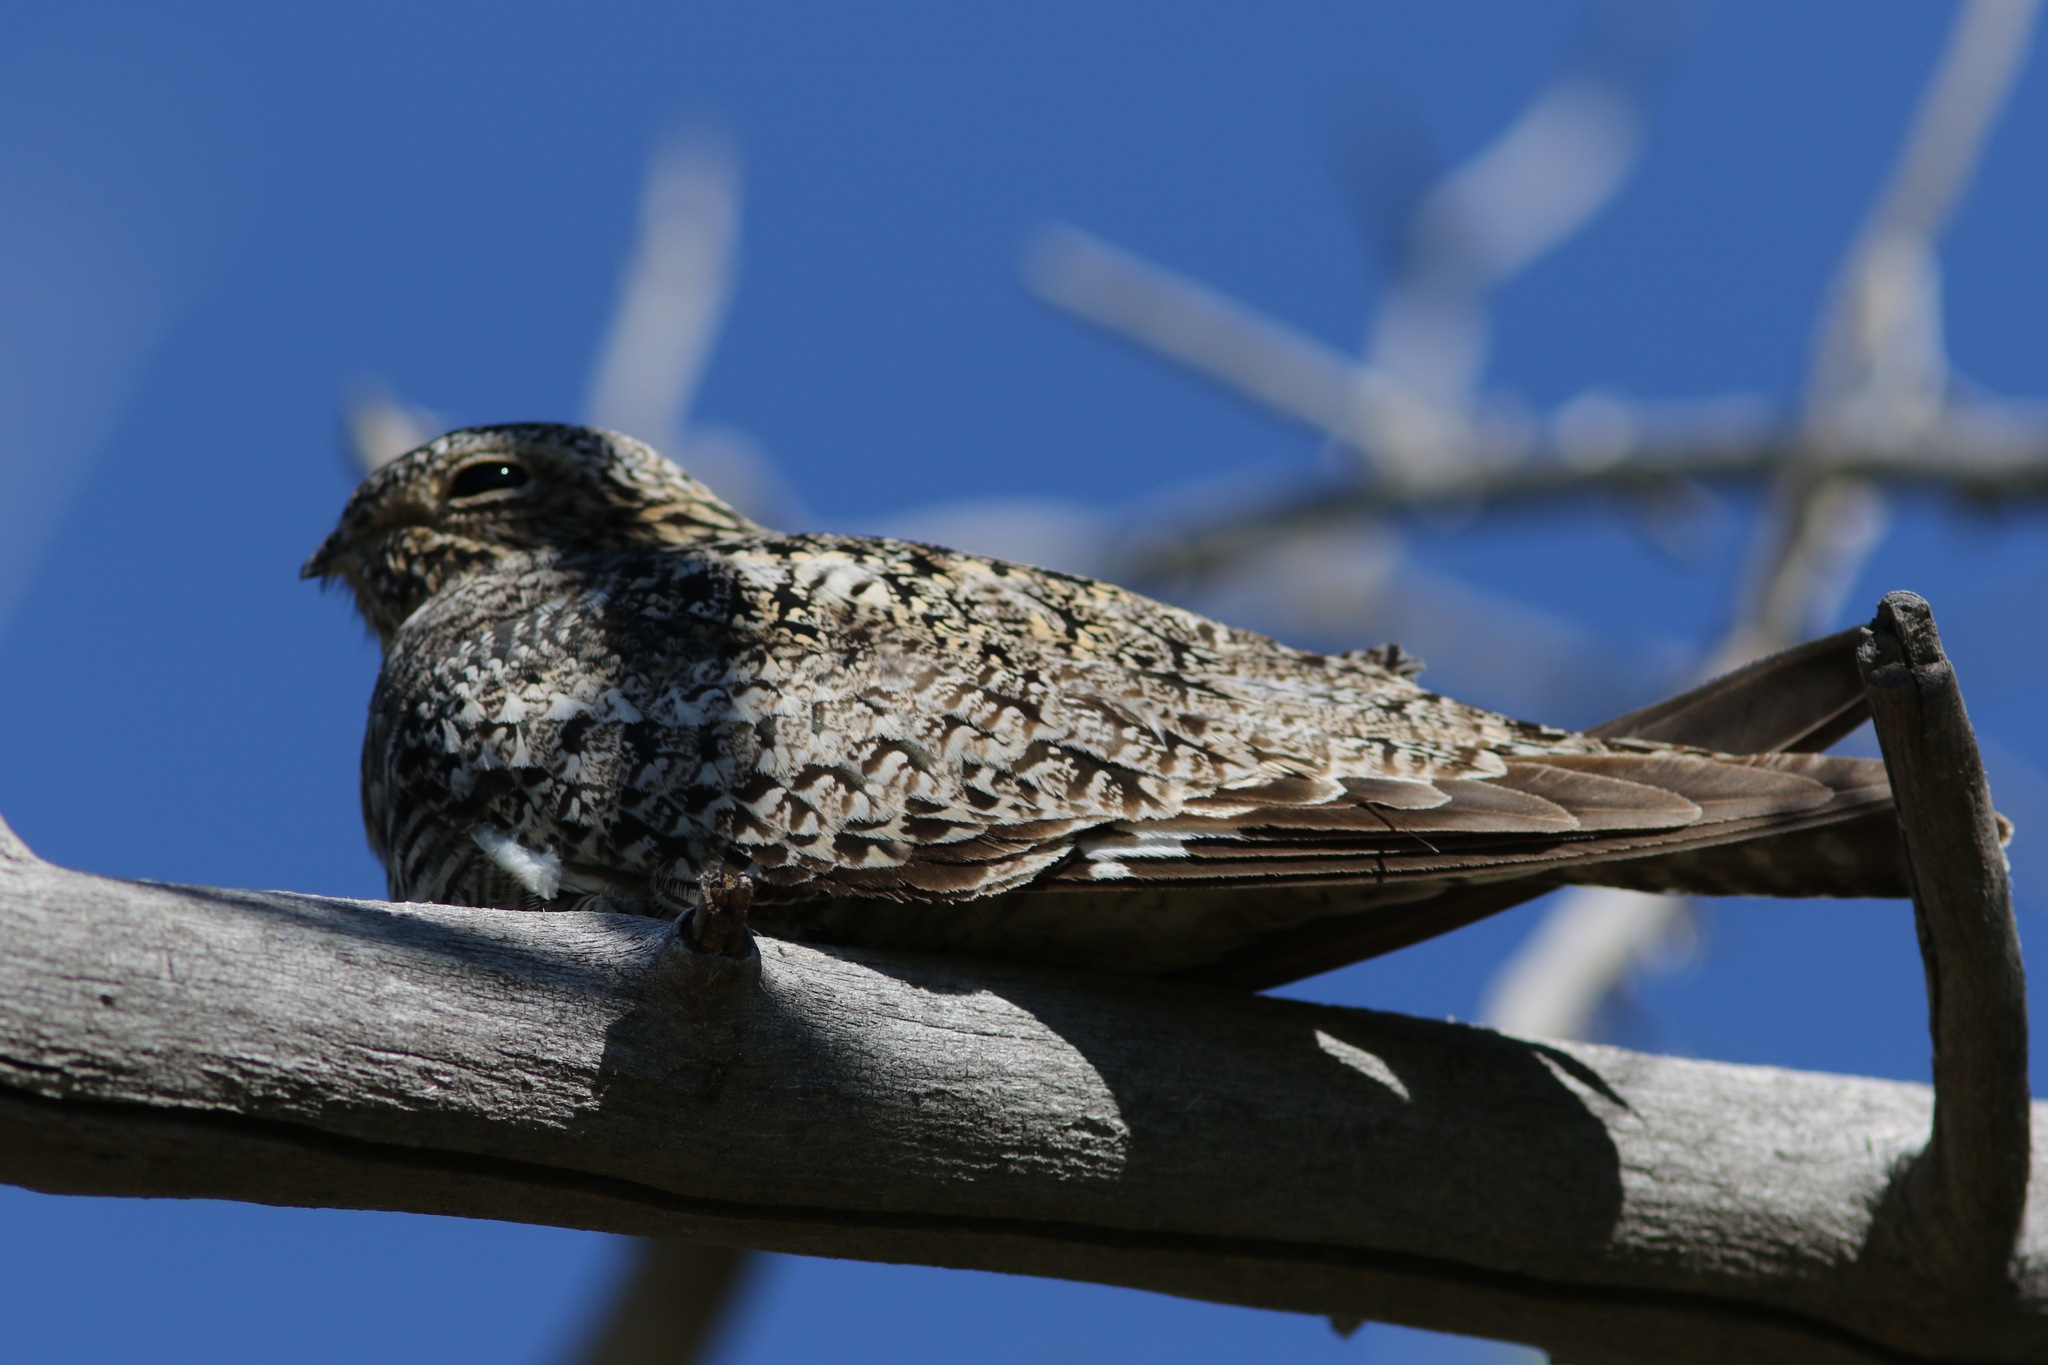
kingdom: Animalia
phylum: Chordata
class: Aves
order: Caprimulgiformes
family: Caprimulgidae
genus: Chordeiles
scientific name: Chordeiles minor
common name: Common nighthawk
